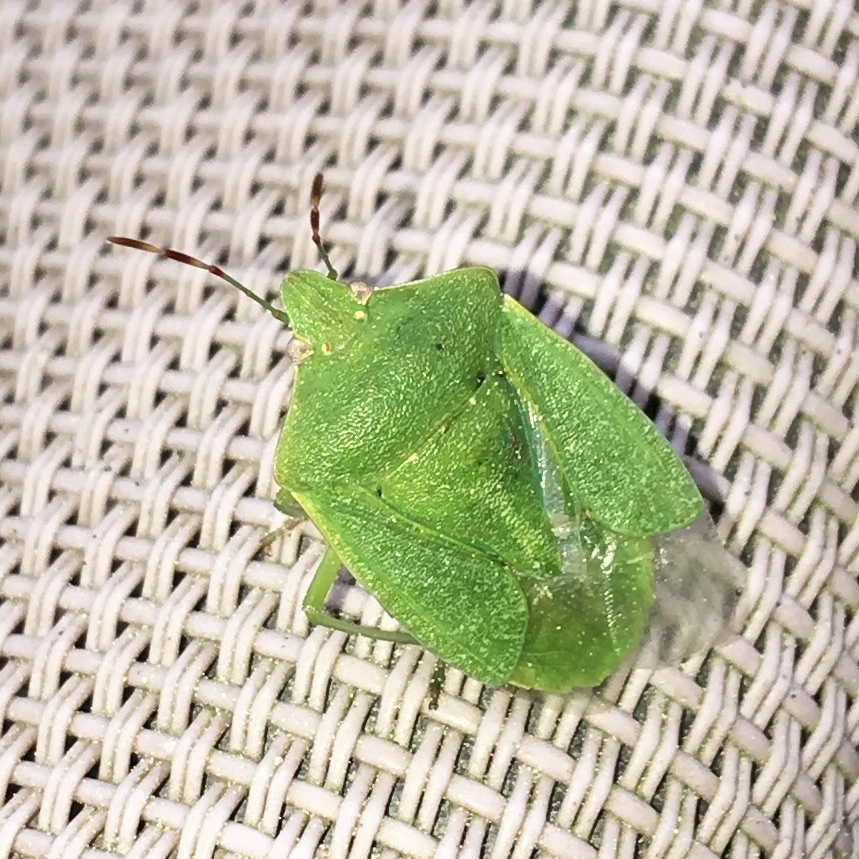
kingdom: Animalia
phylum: Arthropoda
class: Insecta
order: Hemiptera
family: Pentatomidae
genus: Nezara
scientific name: Nezara viridula
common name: Southern green stink bug
